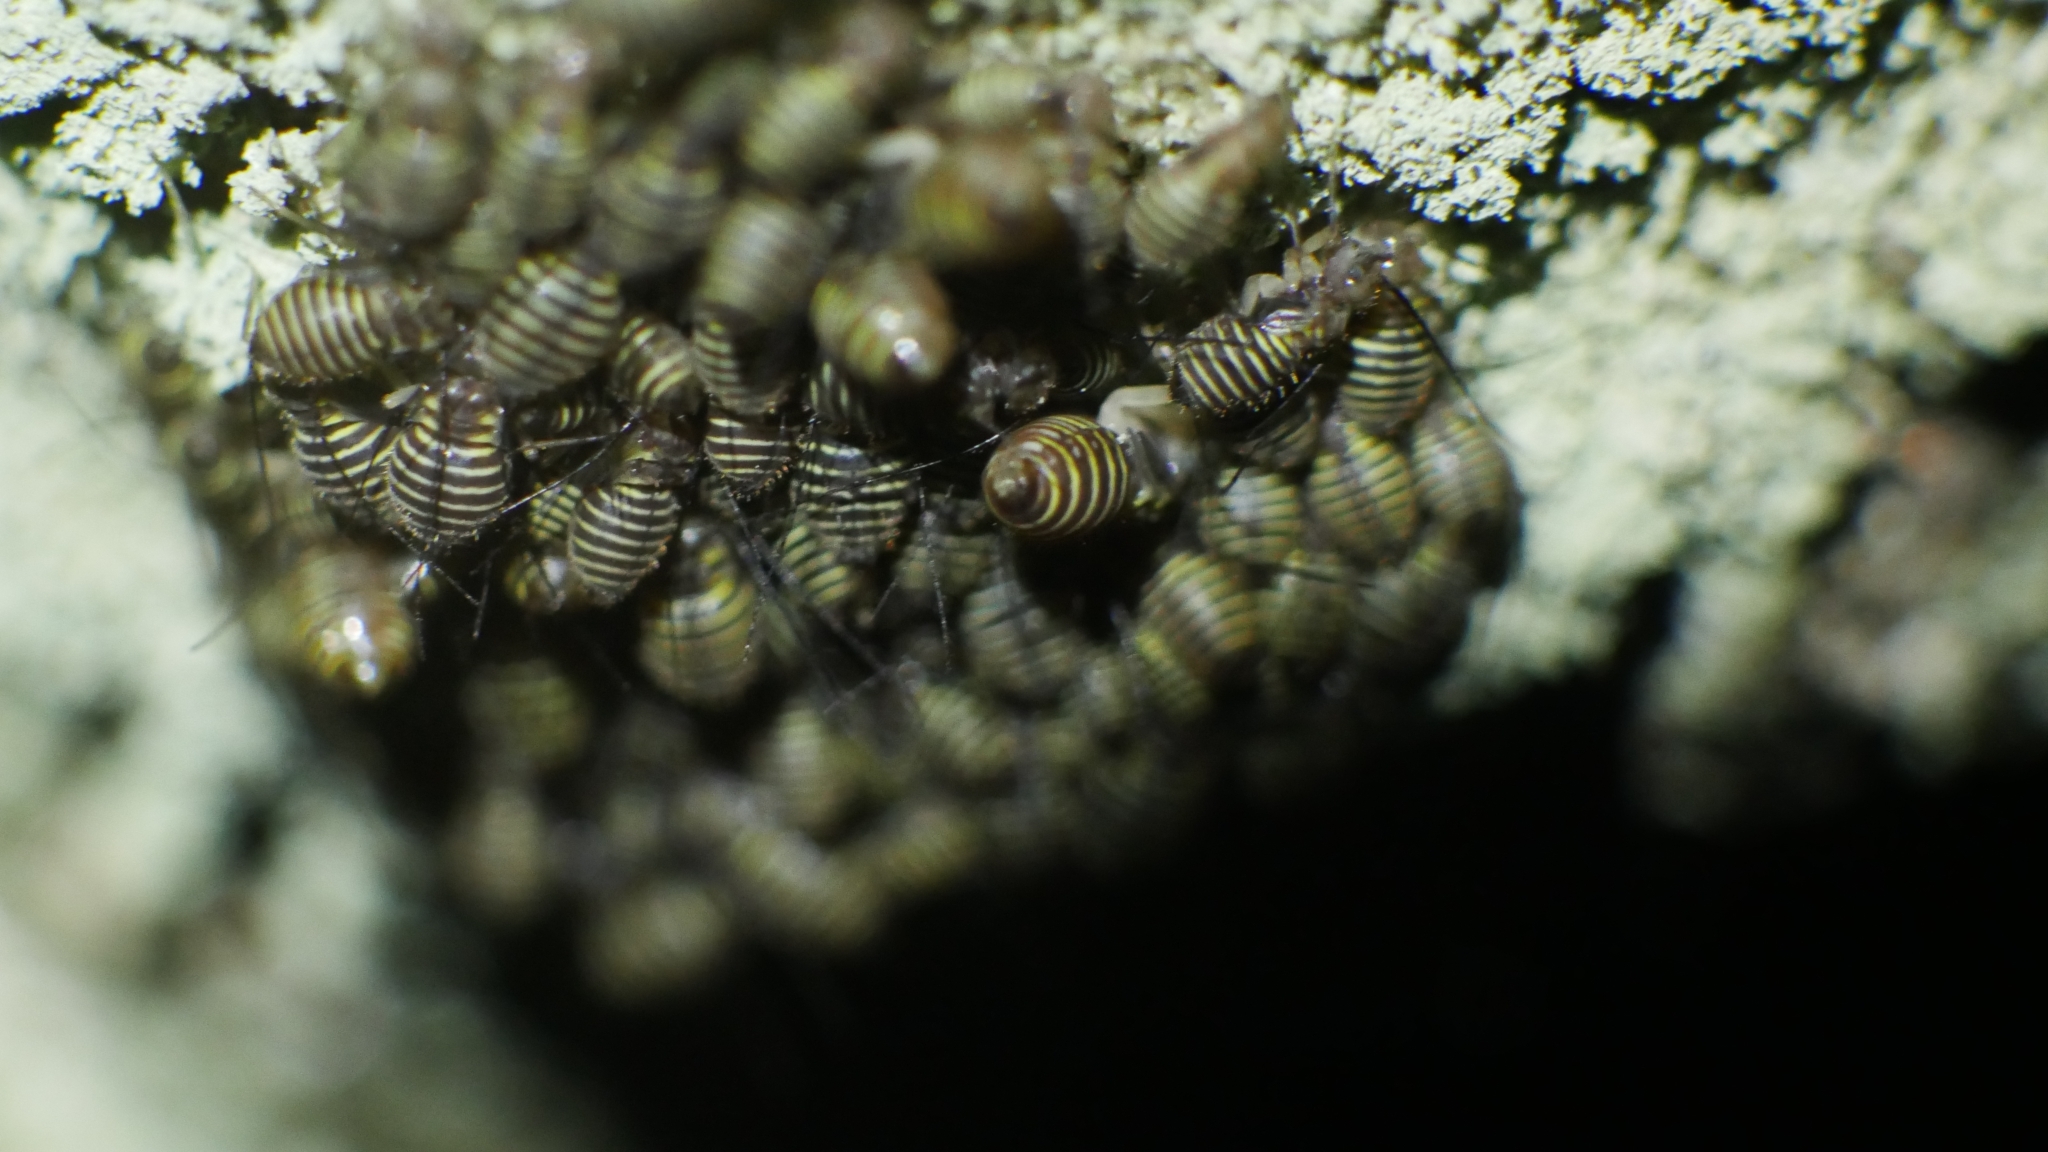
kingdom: Animalia
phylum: Arthropoda
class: Insecta
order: Psocodea
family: Psocidae
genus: Cerastipsocus
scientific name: Cerastipsocus venosus
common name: Tree cattle
